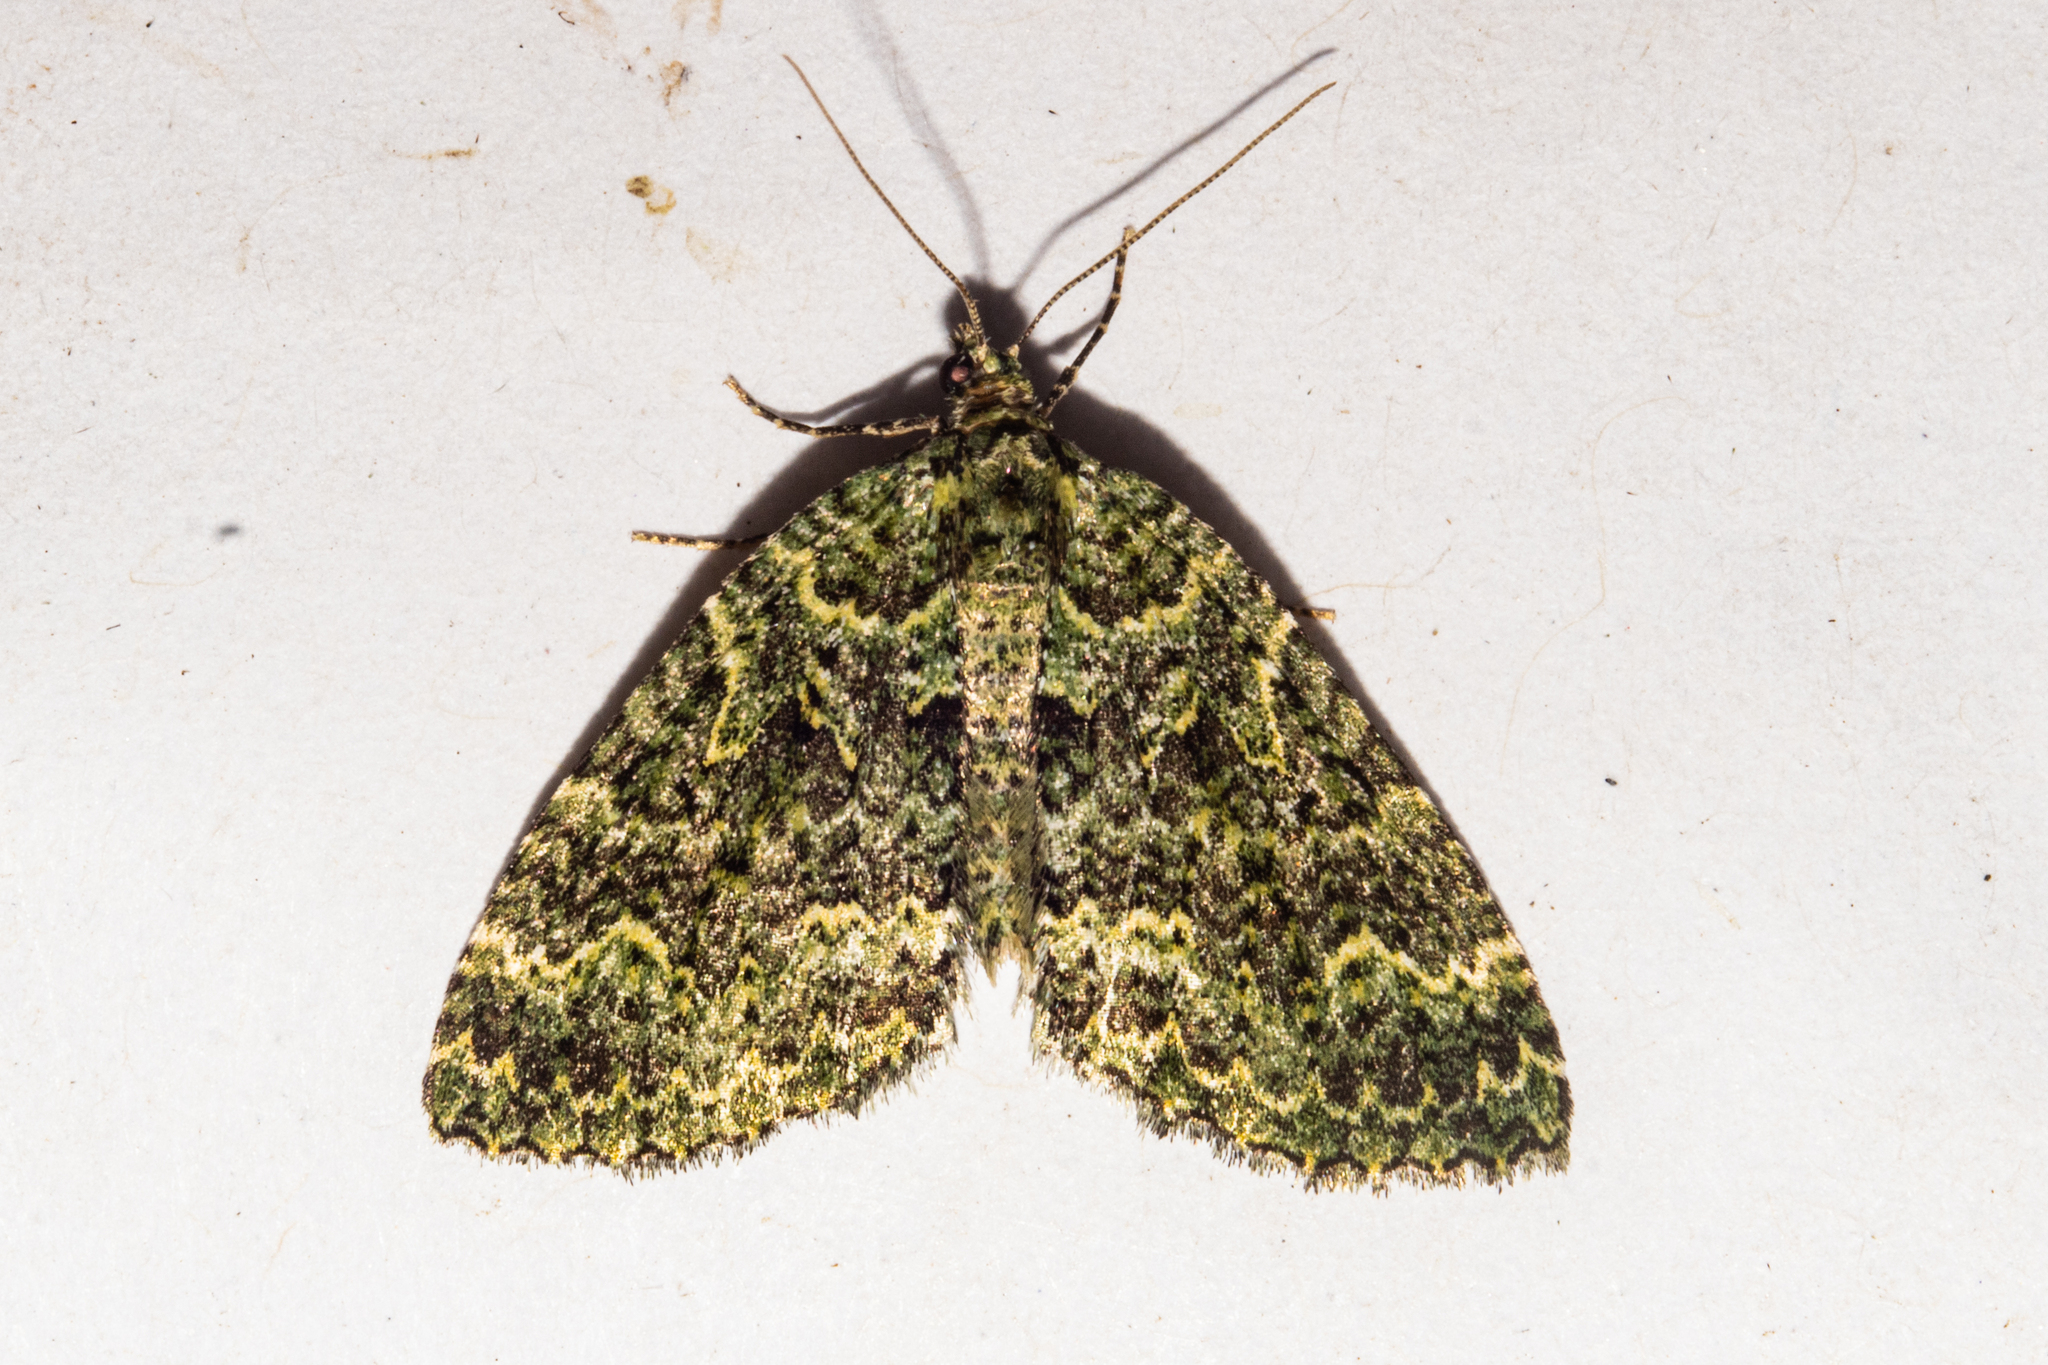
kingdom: Animalia
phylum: Arthropoda
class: Insecta
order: Lepidoptera
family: Geometridae
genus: Austrocidaria
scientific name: Austrocidaria callichlora
